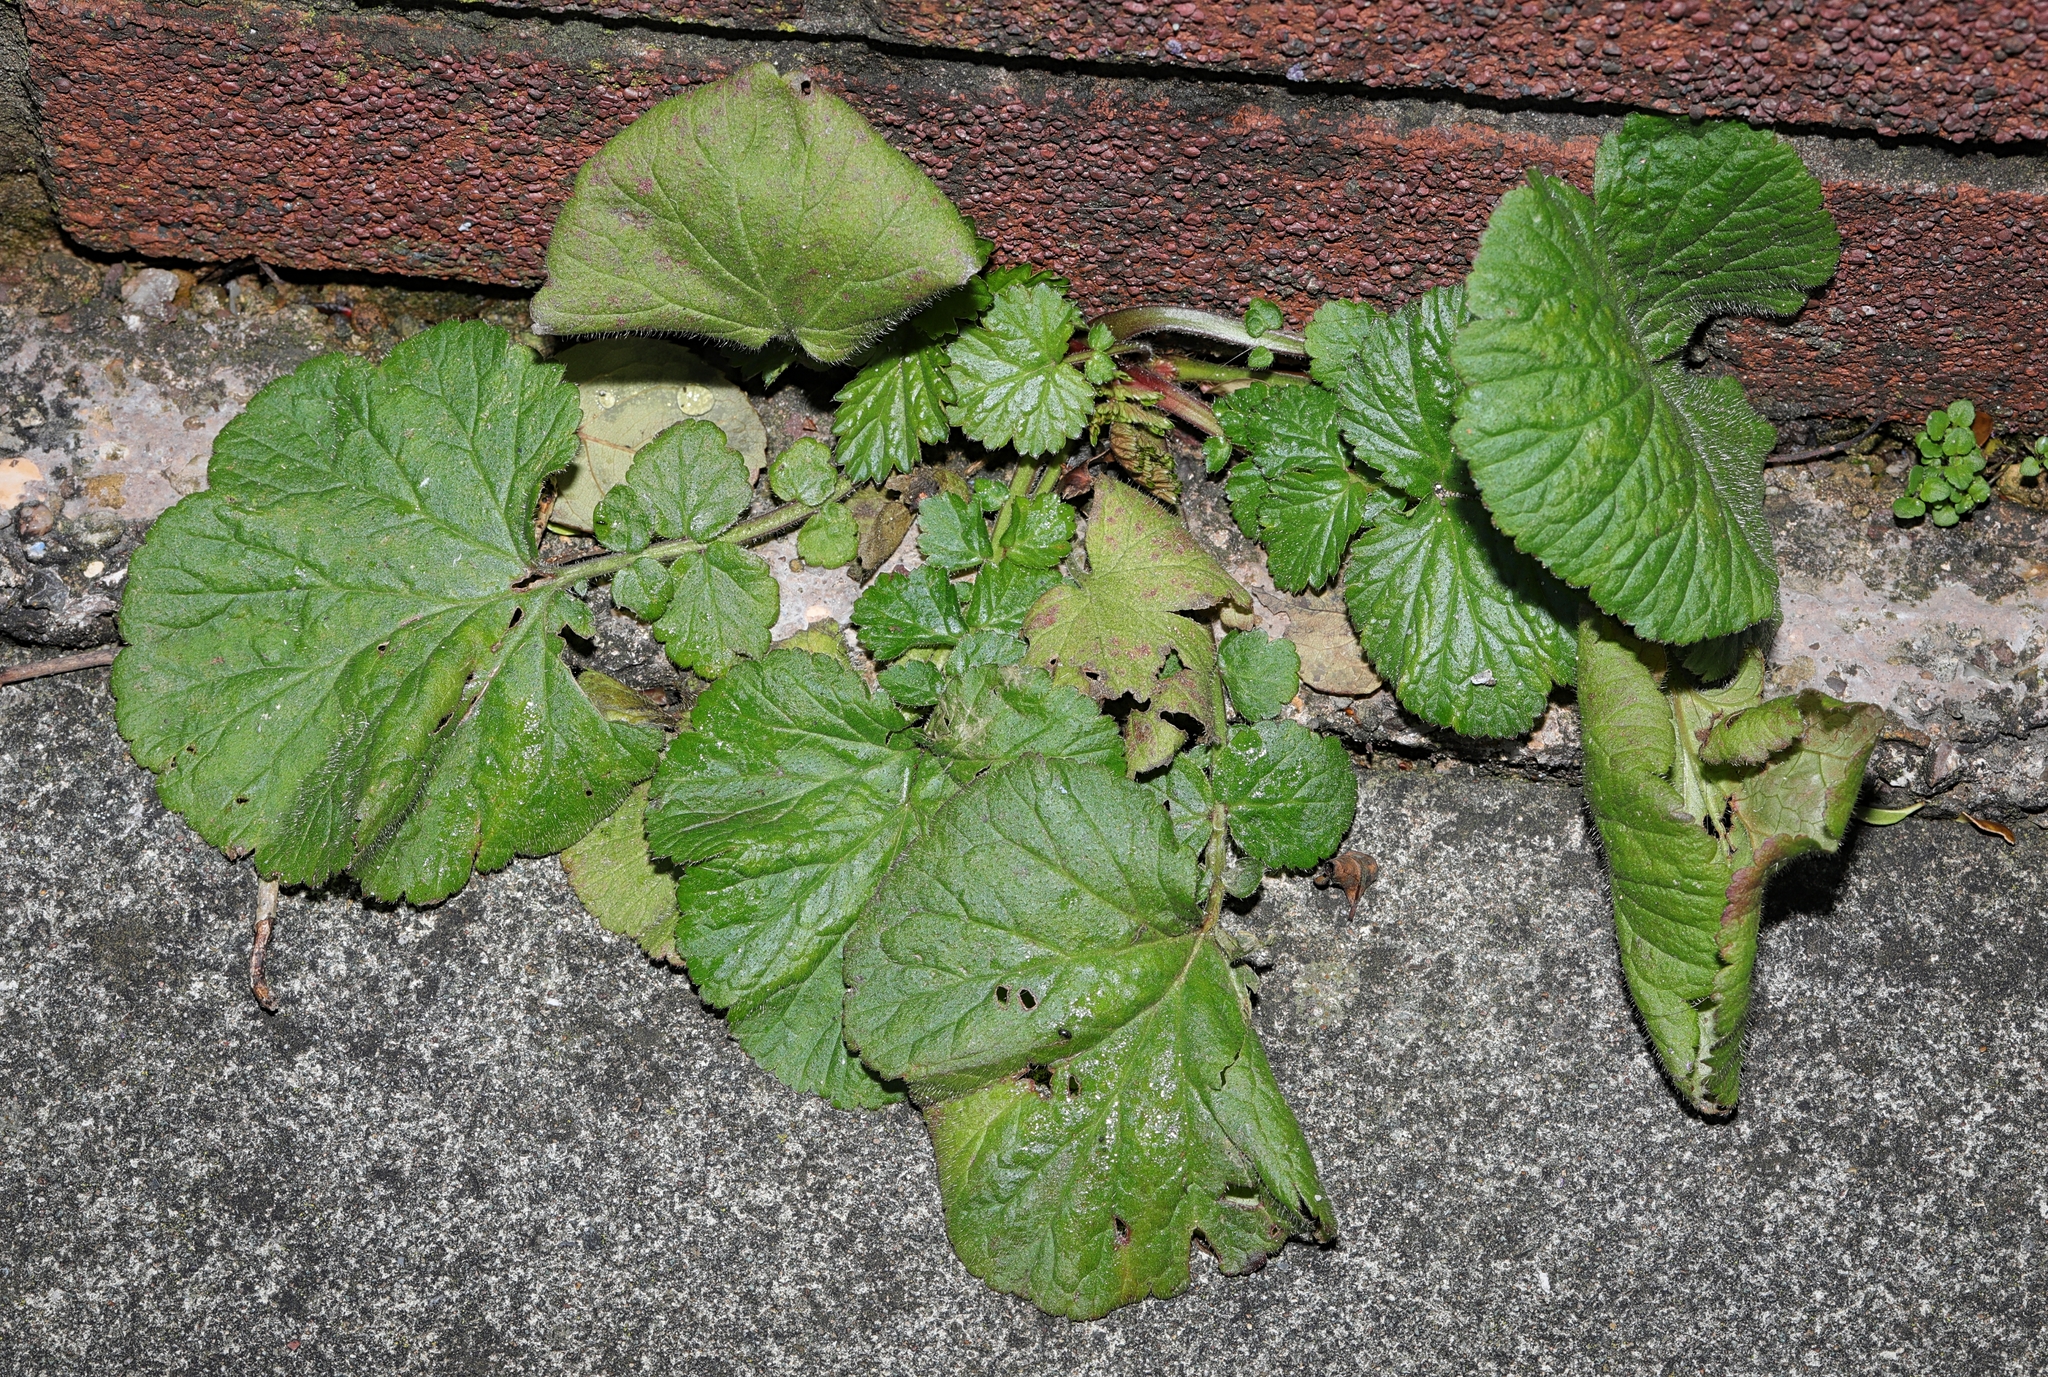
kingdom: Plantae
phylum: Tracheophyta
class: Magnoliopsida
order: Rosales
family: Rosaceae
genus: Geum
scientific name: Geum urbanum
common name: Wood avens
